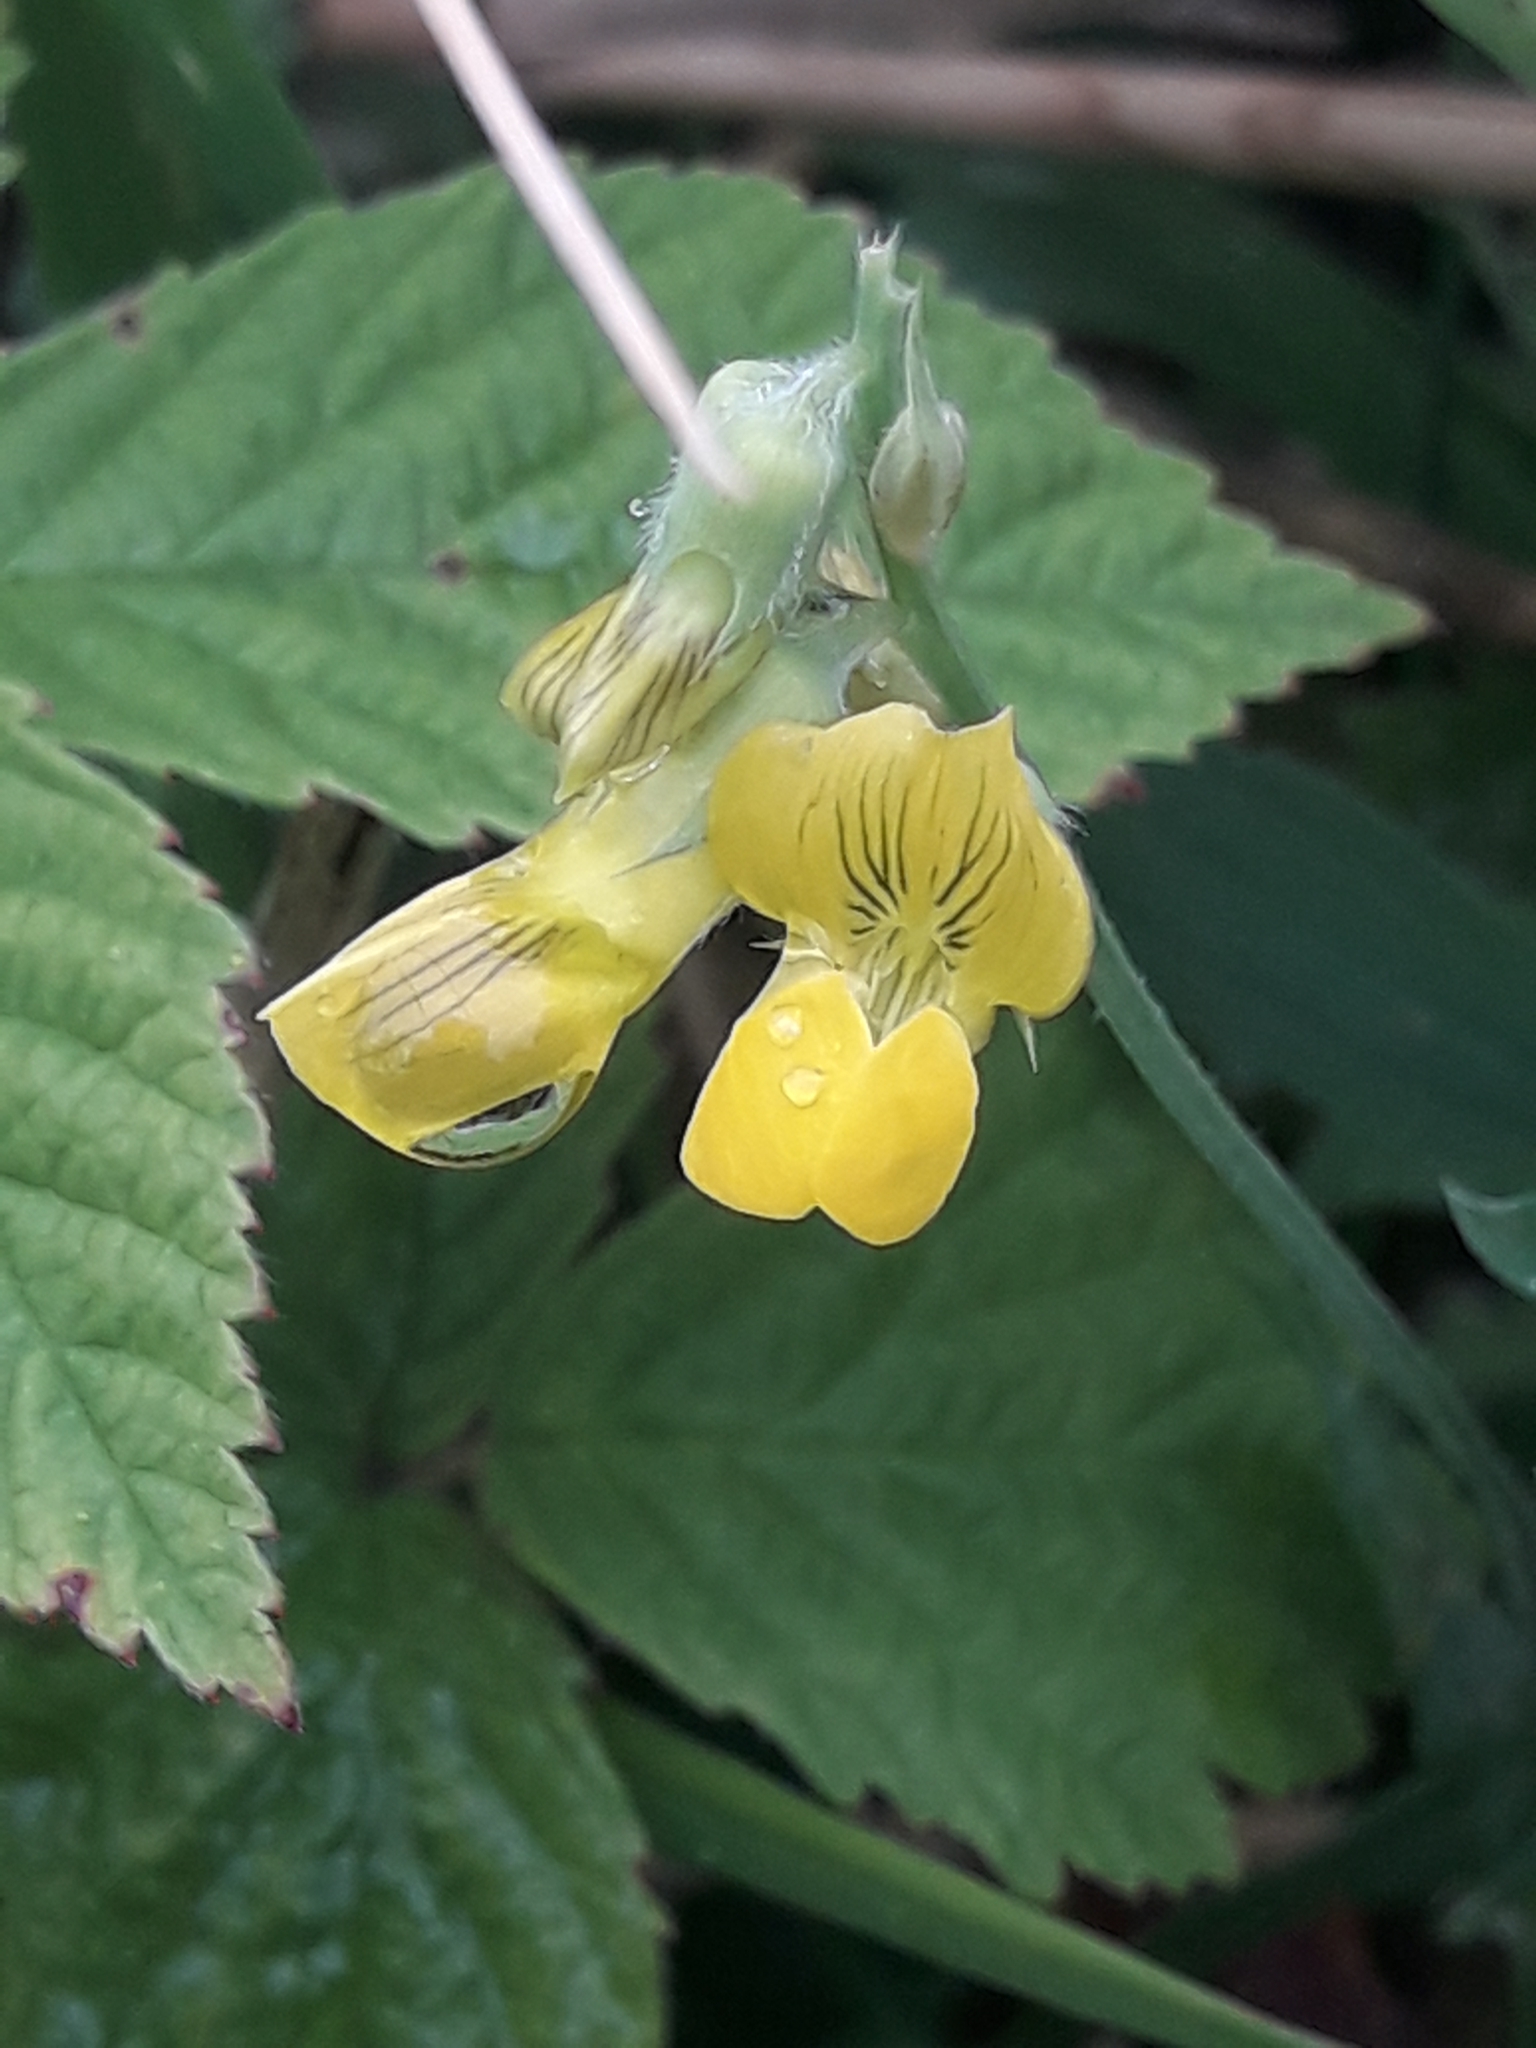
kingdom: Plantae
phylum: Tracheophyta
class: Magnoliopsida
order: Fabales
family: Fabaceae
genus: Lathyrus
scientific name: Lathyrus pratensis
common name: Meadow vetchling
